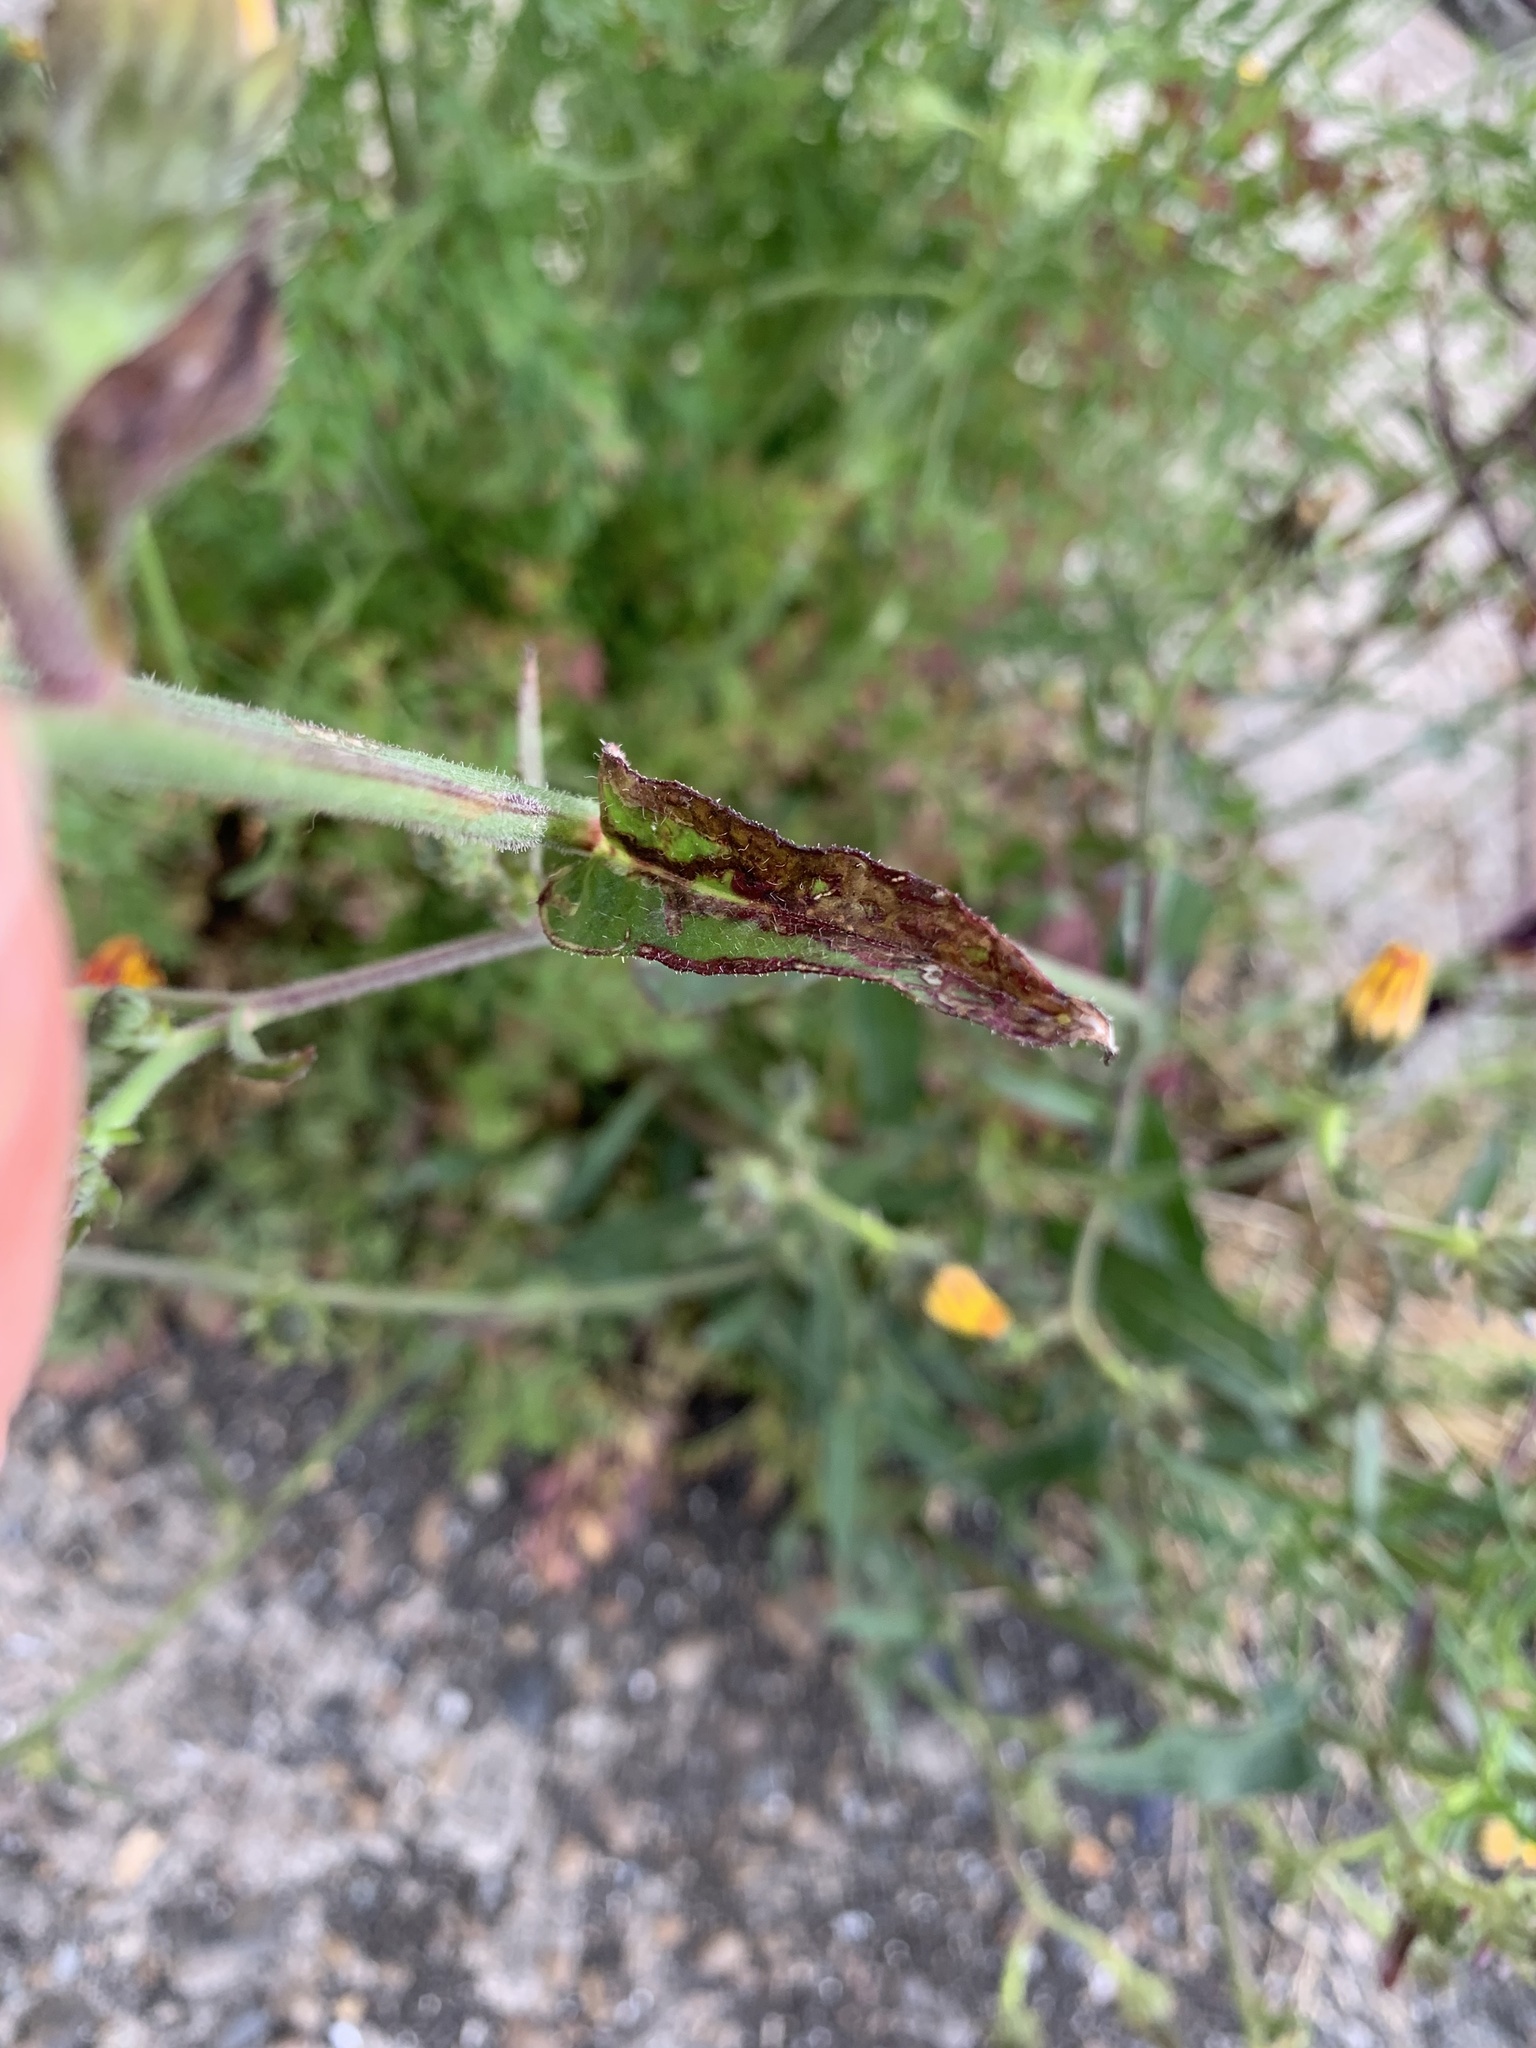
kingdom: Plantae
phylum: Tracheophyta
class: Magnoliopsida
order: Asterales
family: Asteraceae
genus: Picris
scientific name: Picris hieracioides
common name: Hawkweed oxtongue
